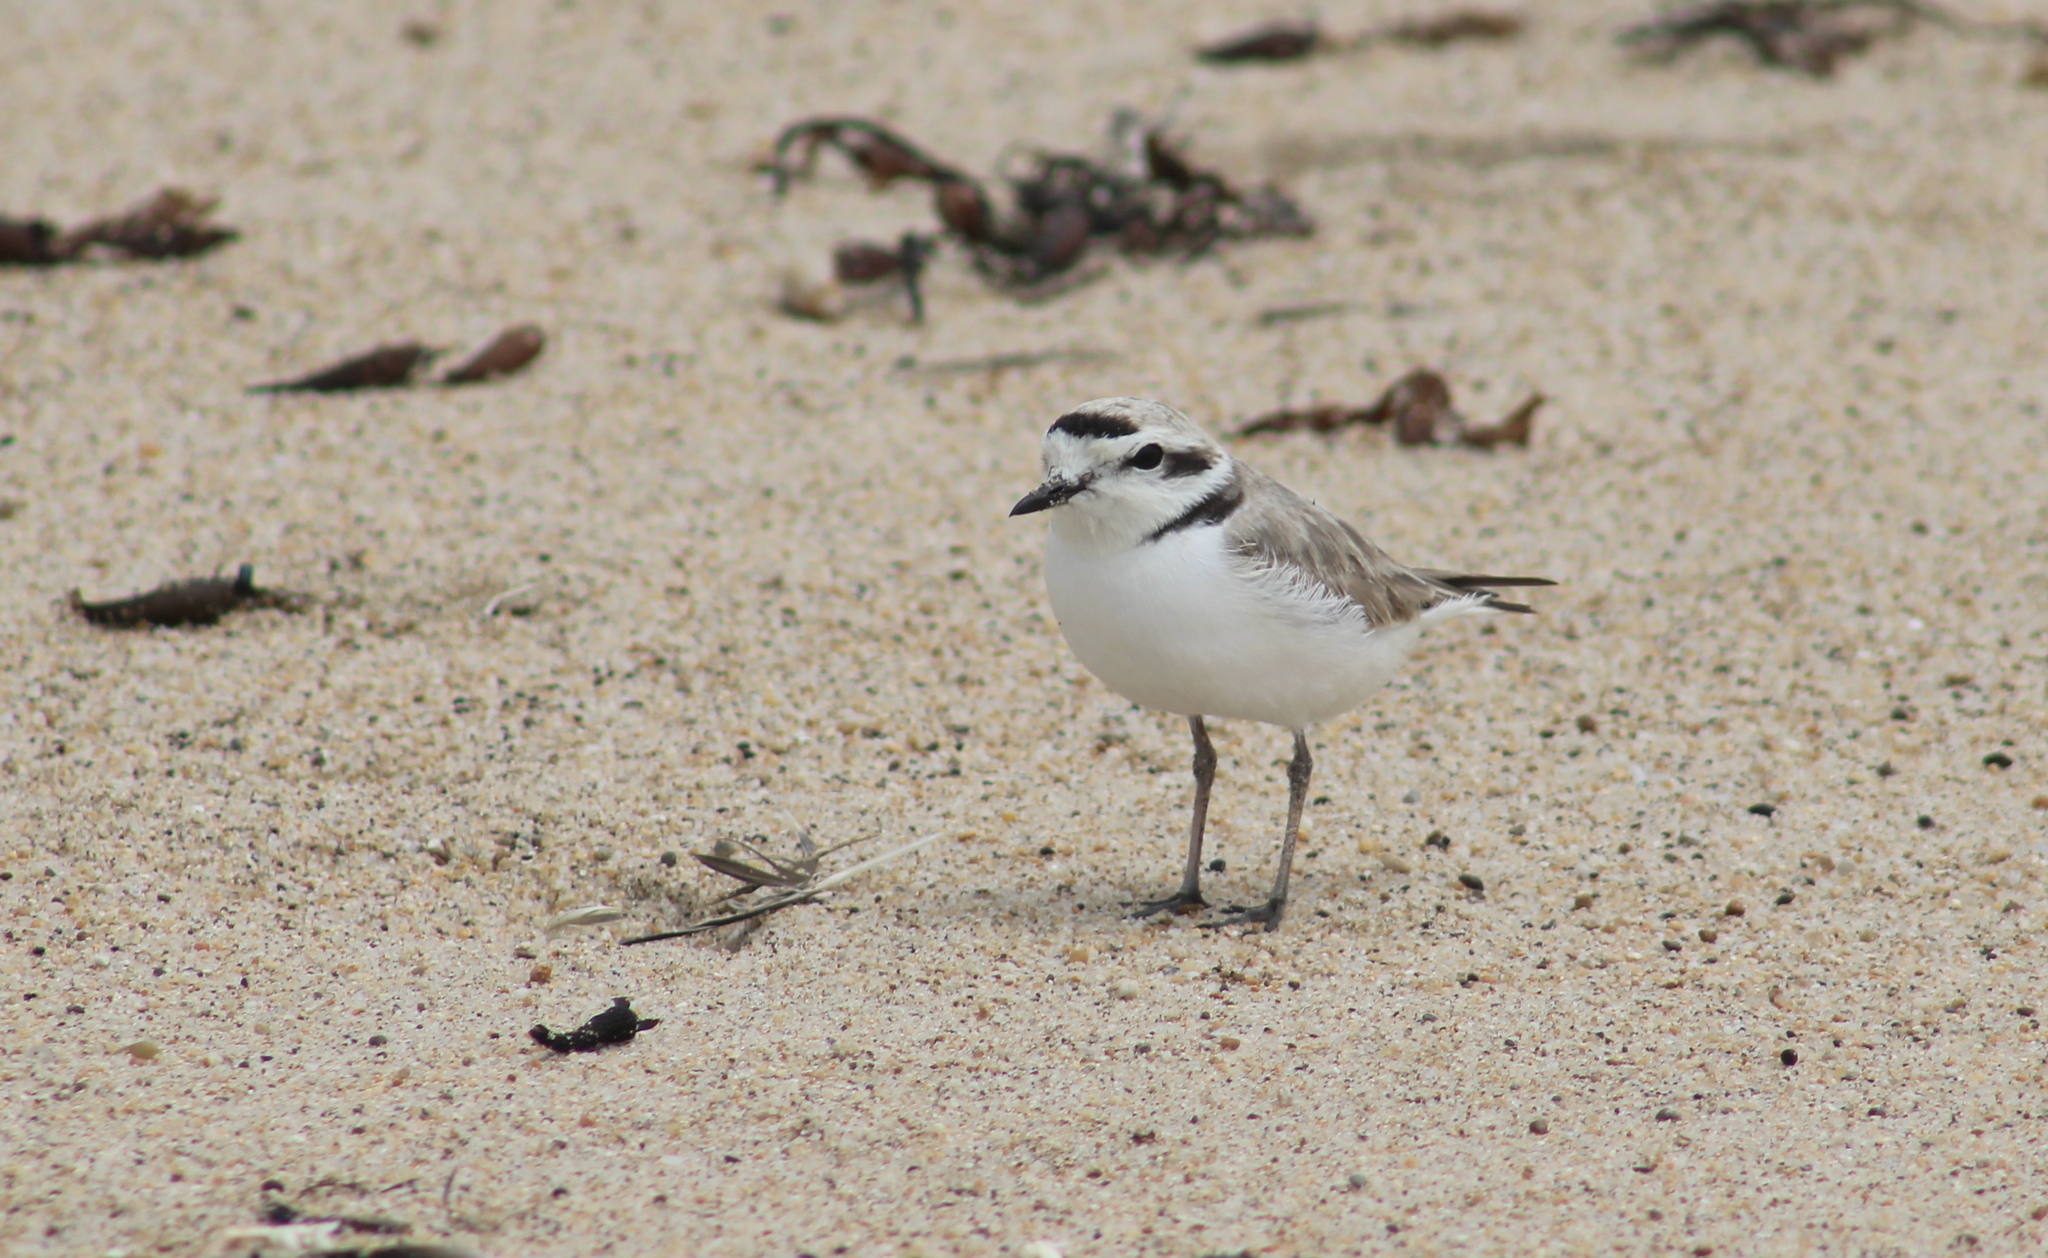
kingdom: Animalia
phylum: Chordata
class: Aves
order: Charadriiformes
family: Charadriidae
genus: Anarhynchus
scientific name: Anarhynchus
